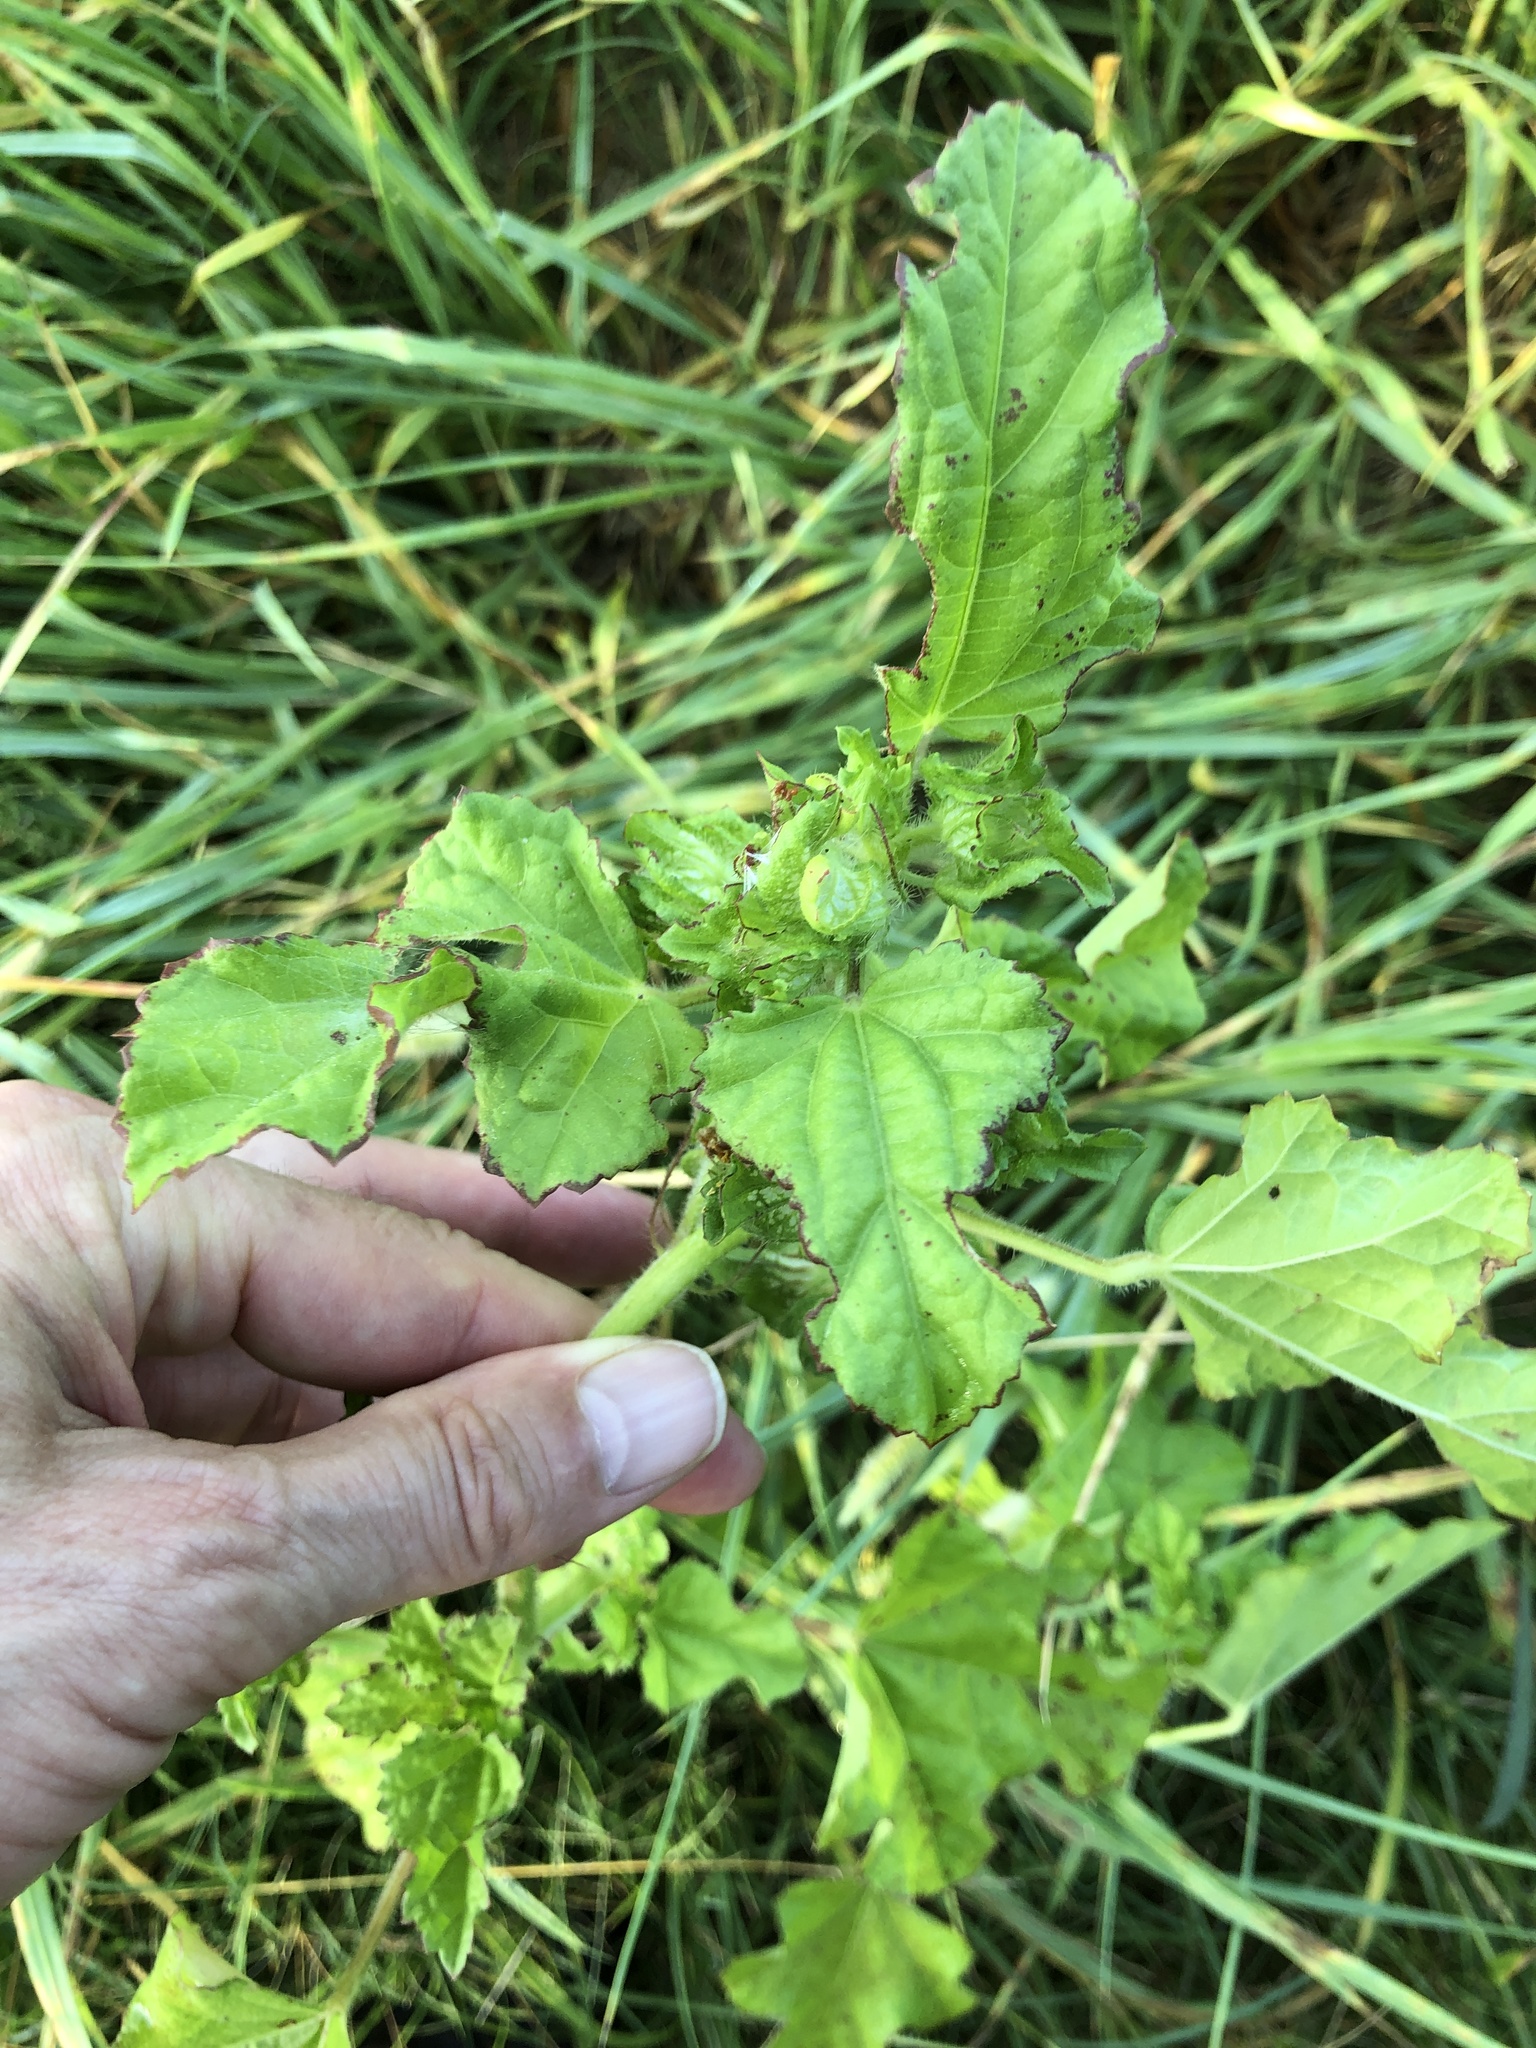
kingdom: Plantae
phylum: Tracheophyta
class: Magnoliopsida
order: Malvales
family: Malvaceae
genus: Malachra
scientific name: Malachra capitata
